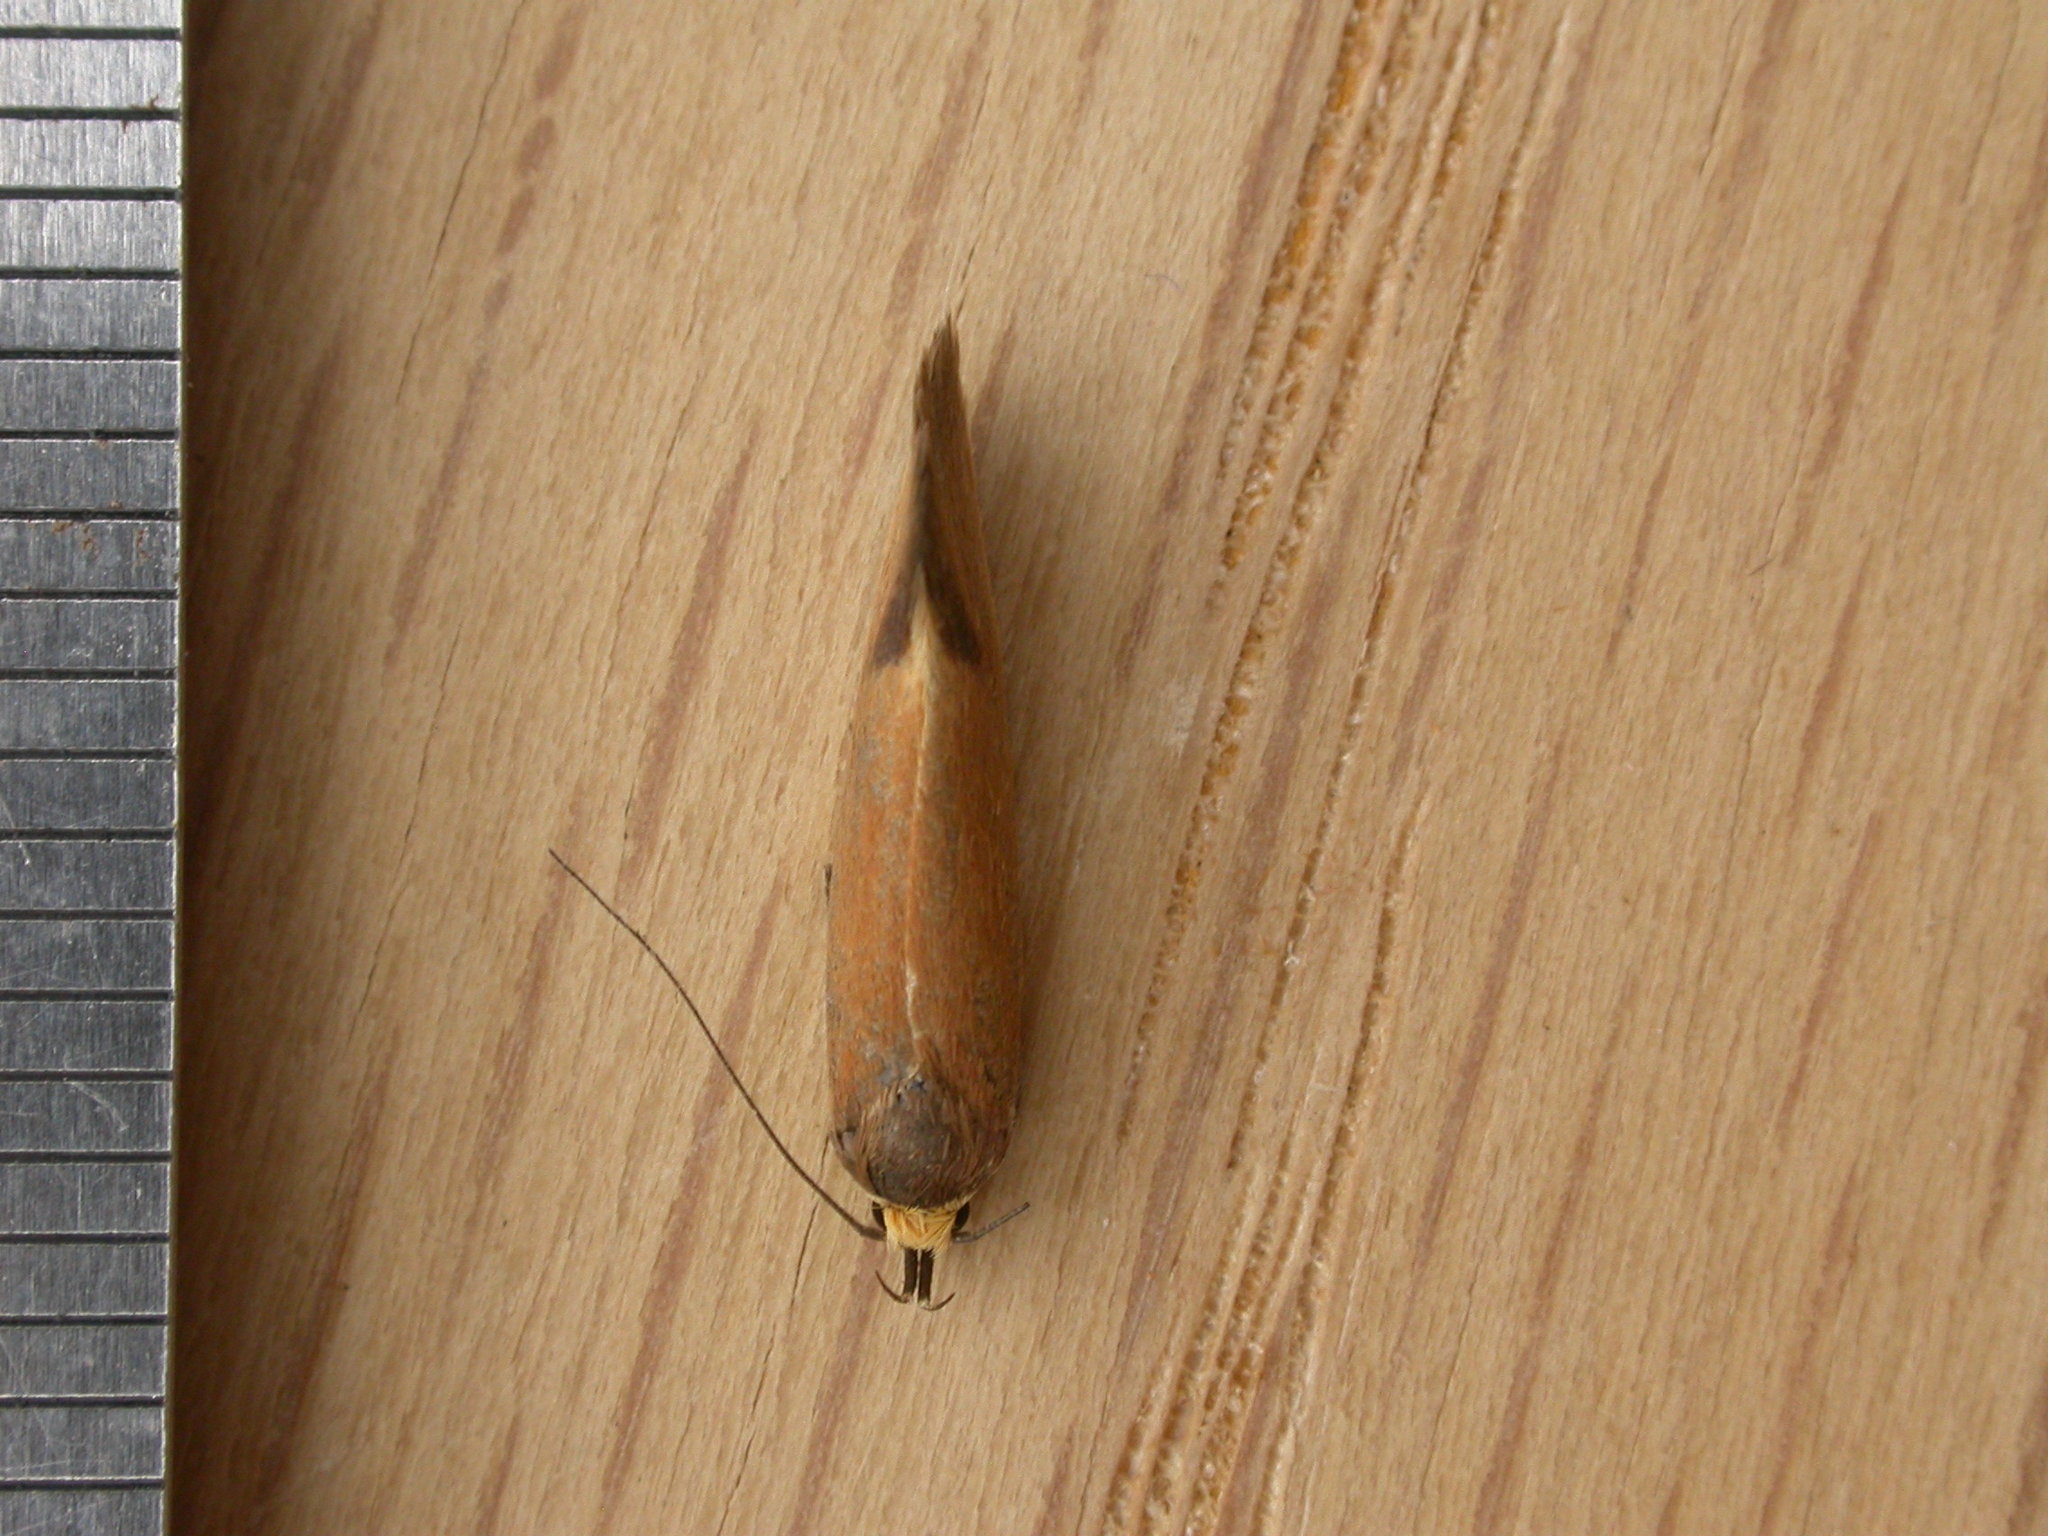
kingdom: Animalia
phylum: Arthropoda
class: Insecta
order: Lepidoptera
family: Oecophoridae
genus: Delexocha
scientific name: Delexocha ochrocausta
